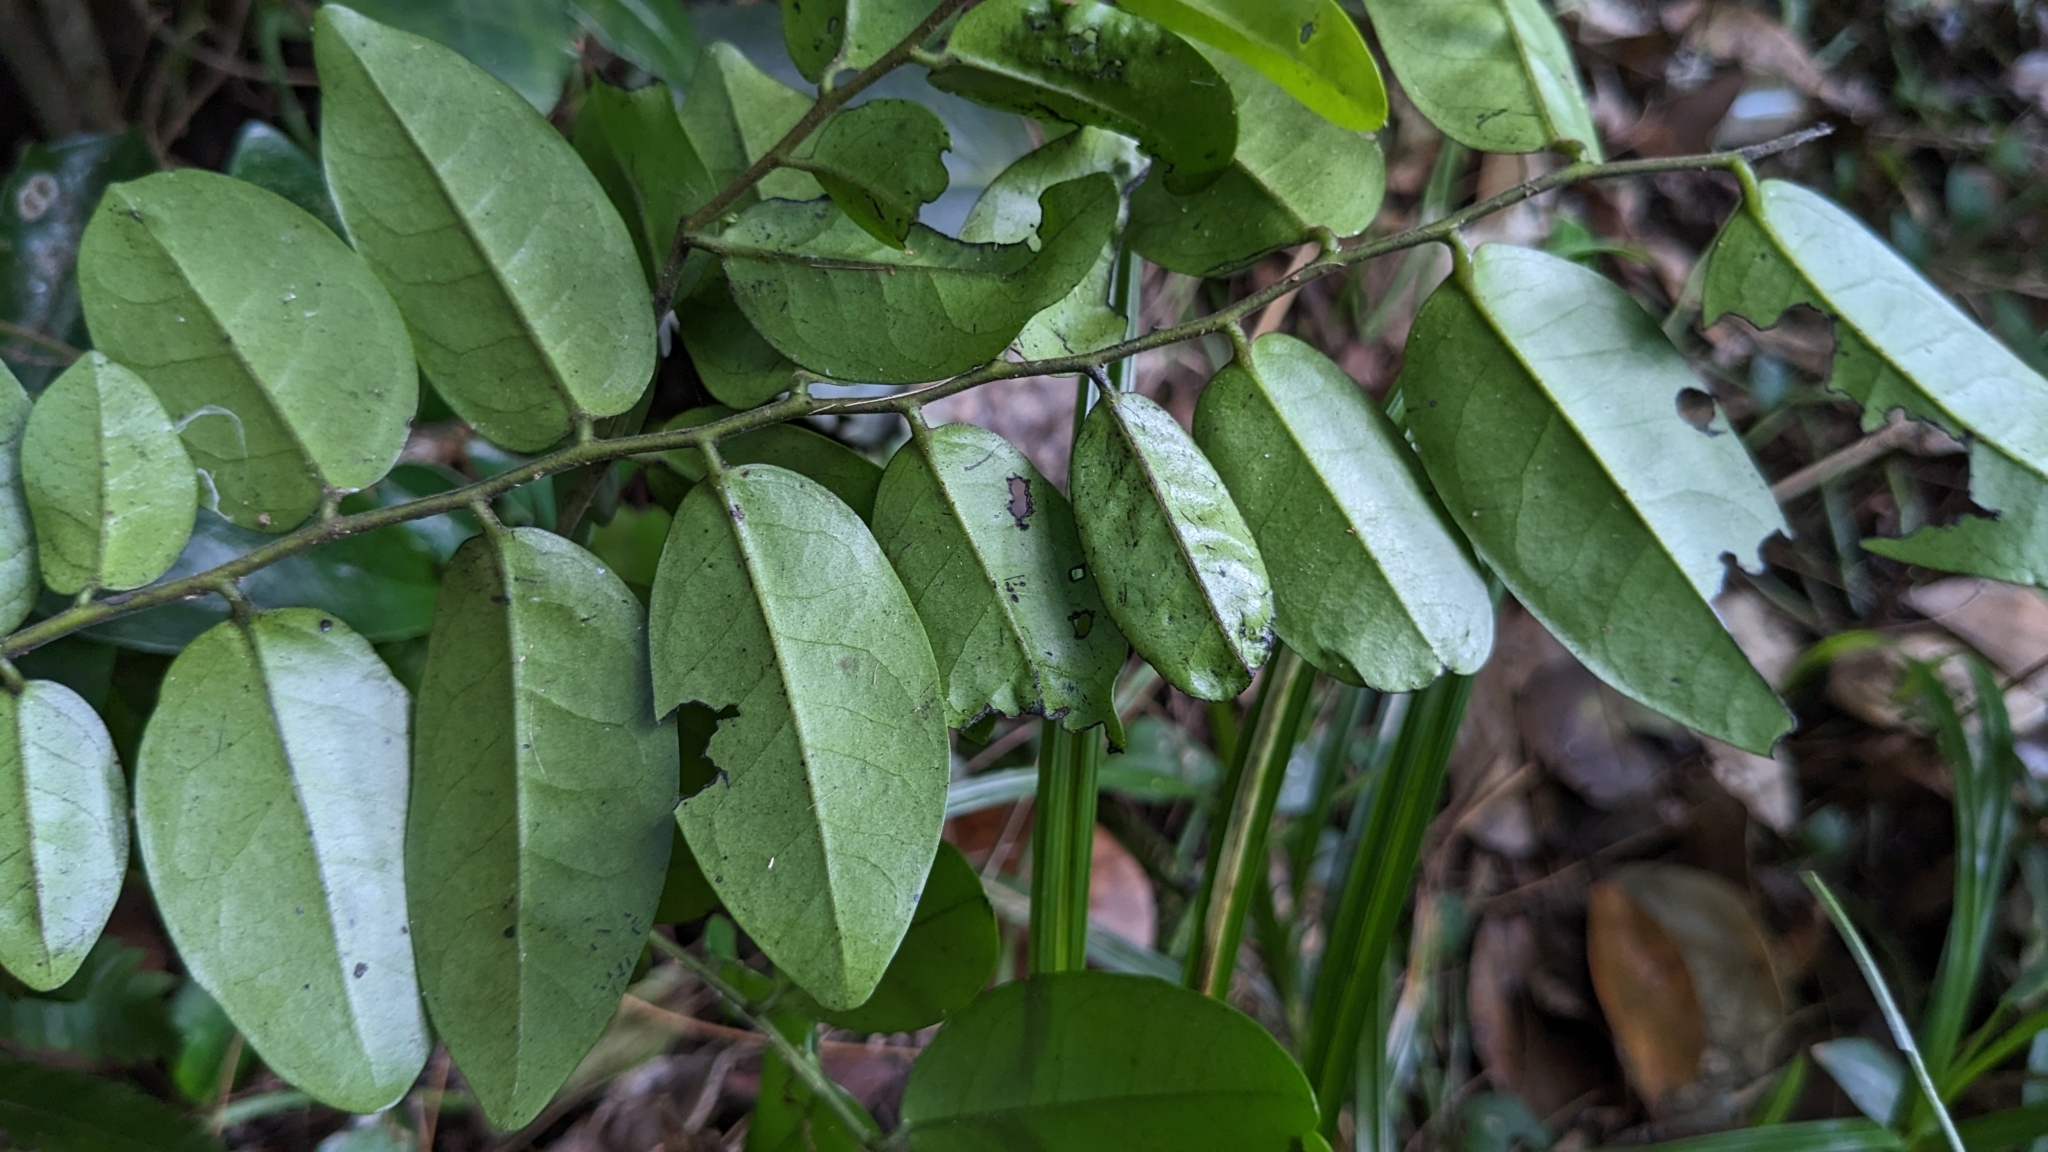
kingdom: Plantae
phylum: Tracheophyta
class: Magnoliopsida
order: Ericales
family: Ebenaceae
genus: Diospyros
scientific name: Diospyros kotoensis
